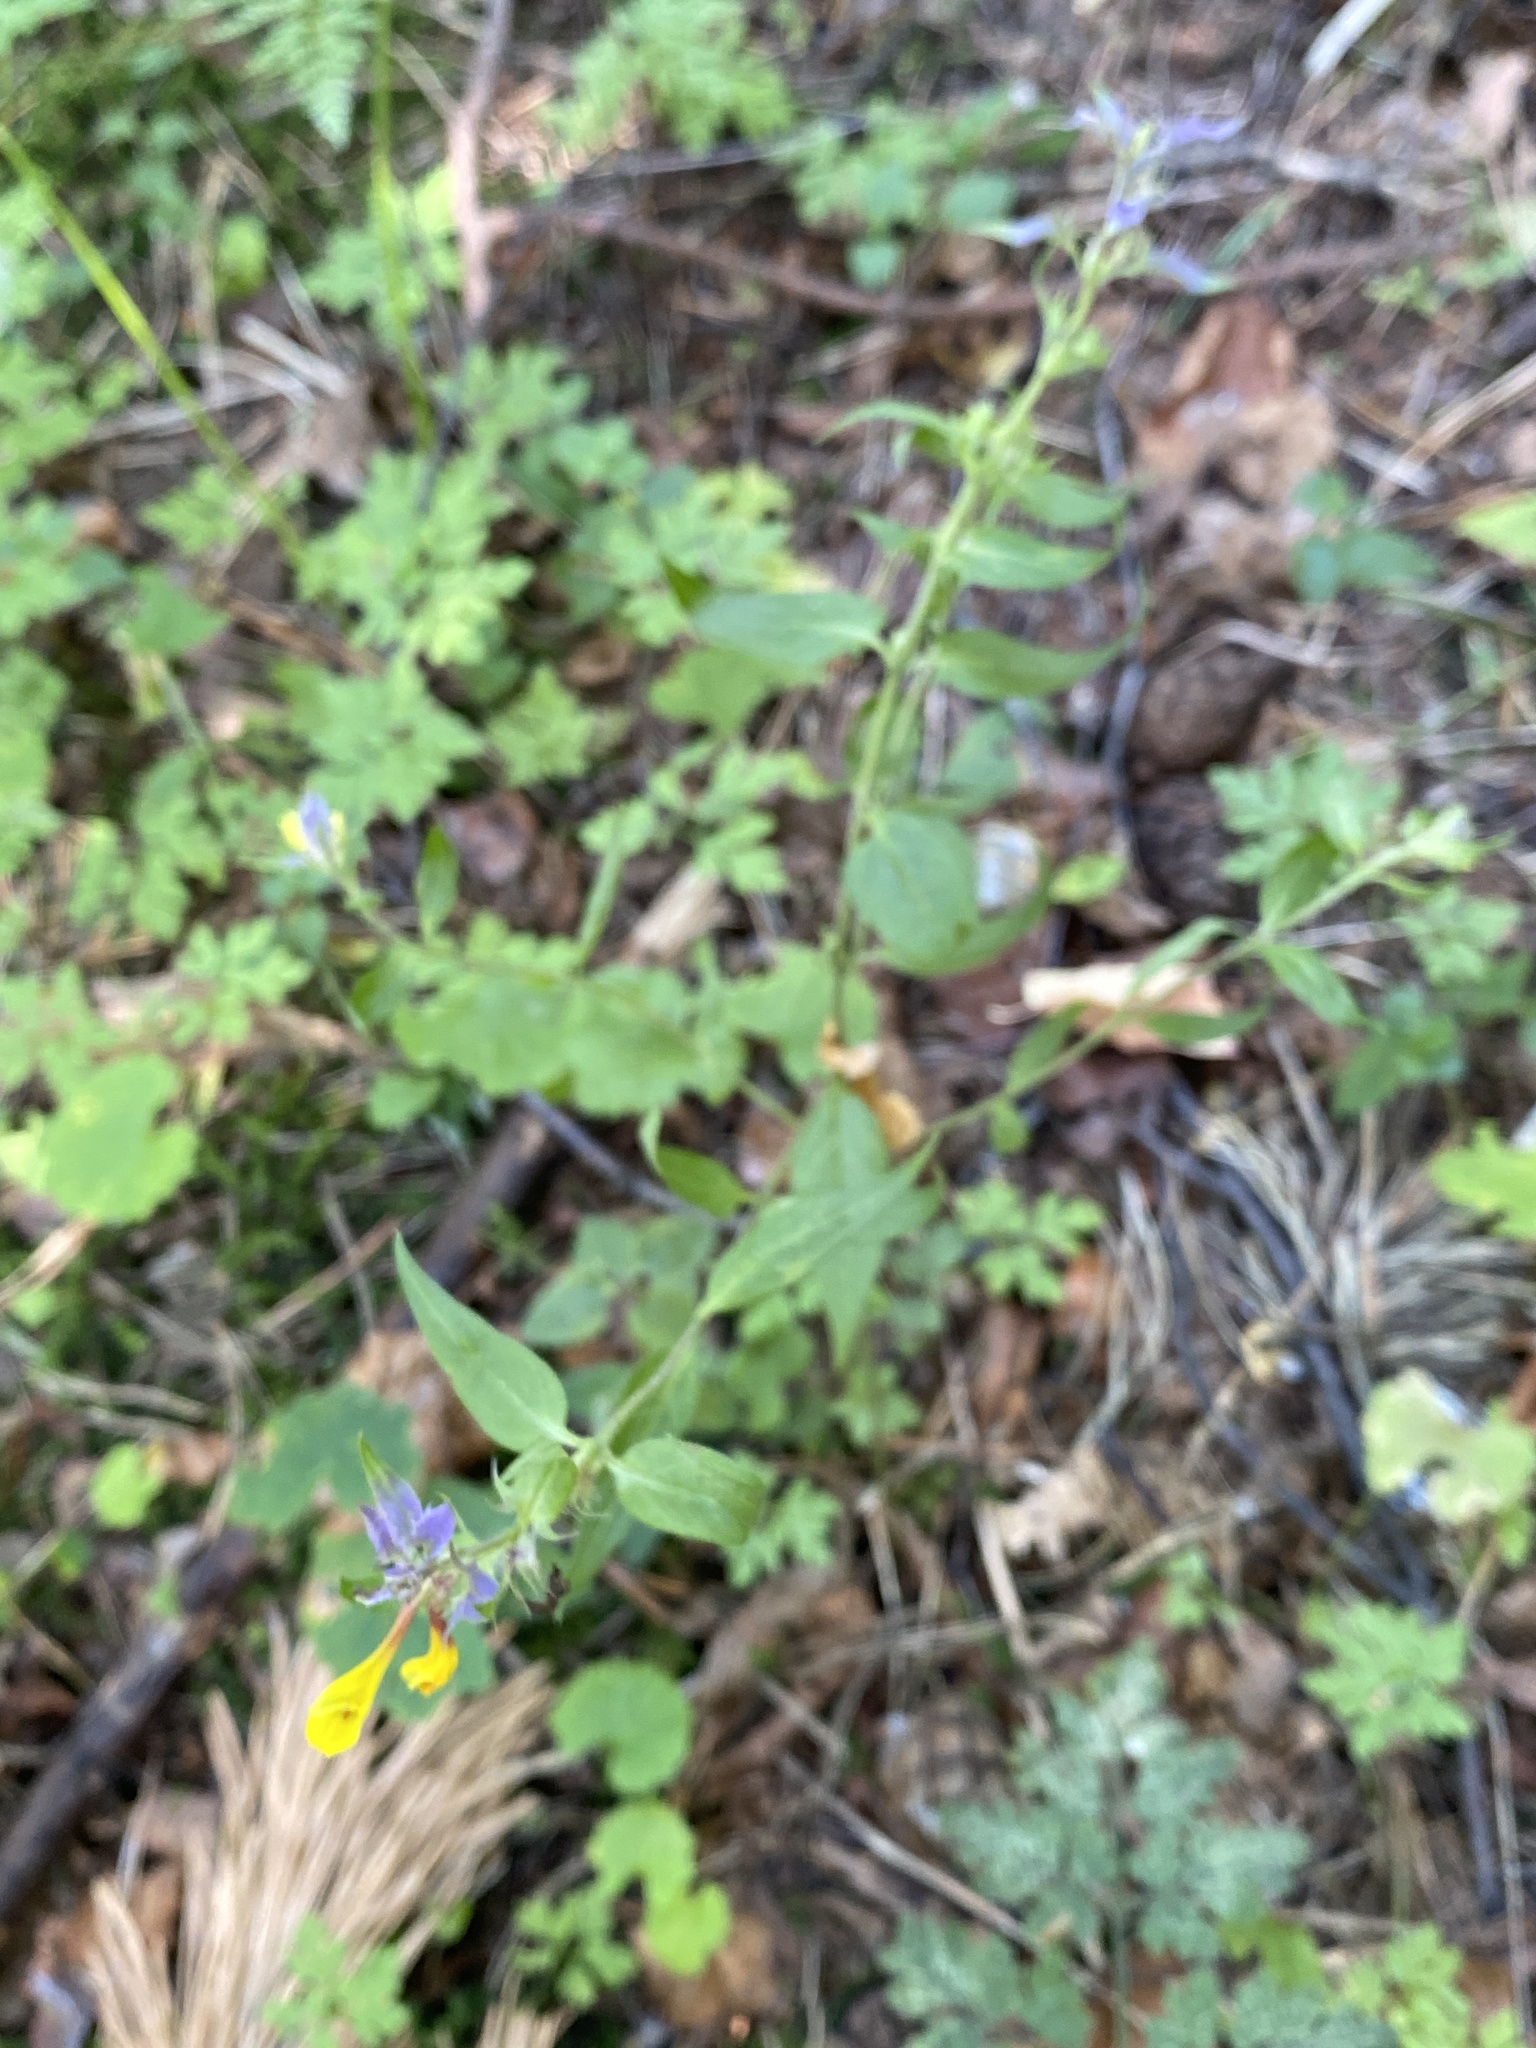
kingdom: Plantae
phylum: Tracheophyta
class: Magnoliopsida
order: Lamiales
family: Orobanchaceae
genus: Melampyrum
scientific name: Melampyrum nemorosum
